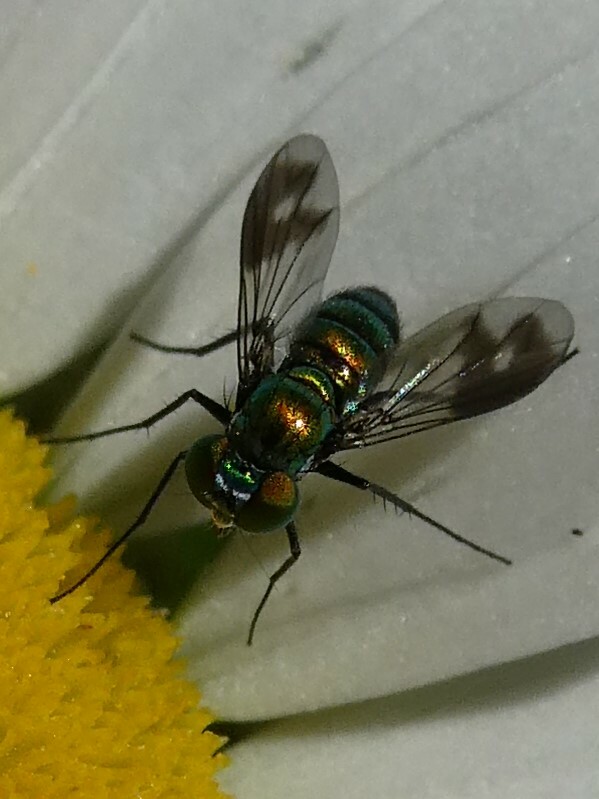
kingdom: Animalia
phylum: Arthropoda
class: Insecta
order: Diptera
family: Dolichopodidae
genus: Condylostylus
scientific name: Condylostylus patibulatus
